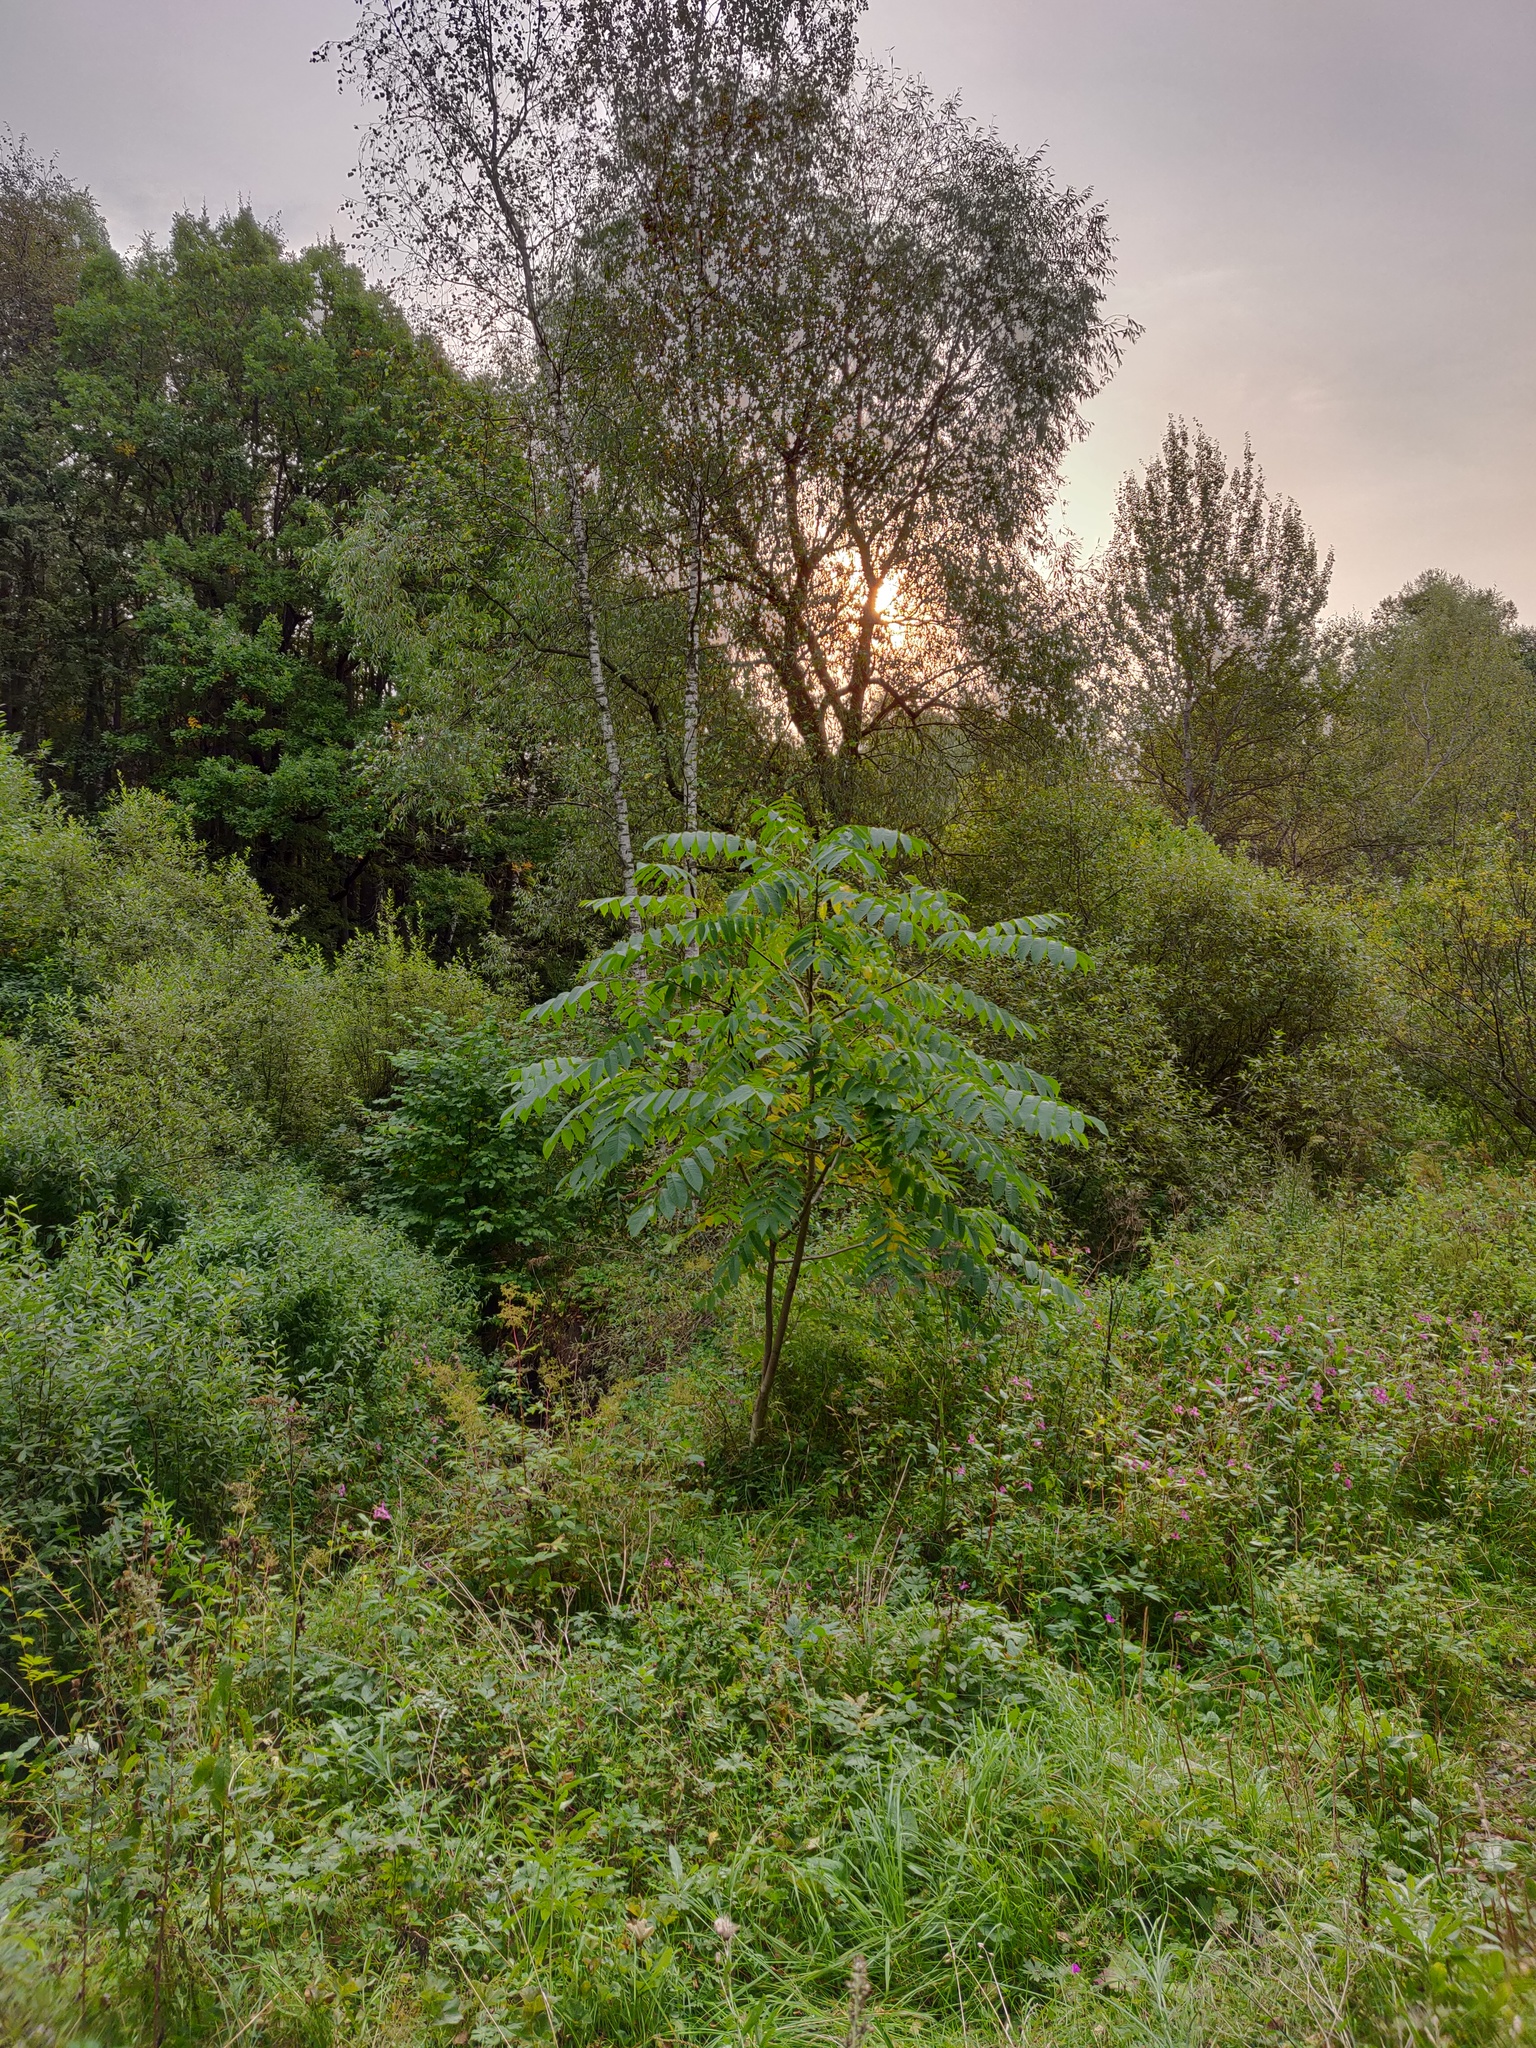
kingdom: Plantae
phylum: Tracheophyta
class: Magnoliopsida
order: Fagales
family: Juglandaceae
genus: Juglans
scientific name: Juglans mandshurica
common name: Manchurian walnut
